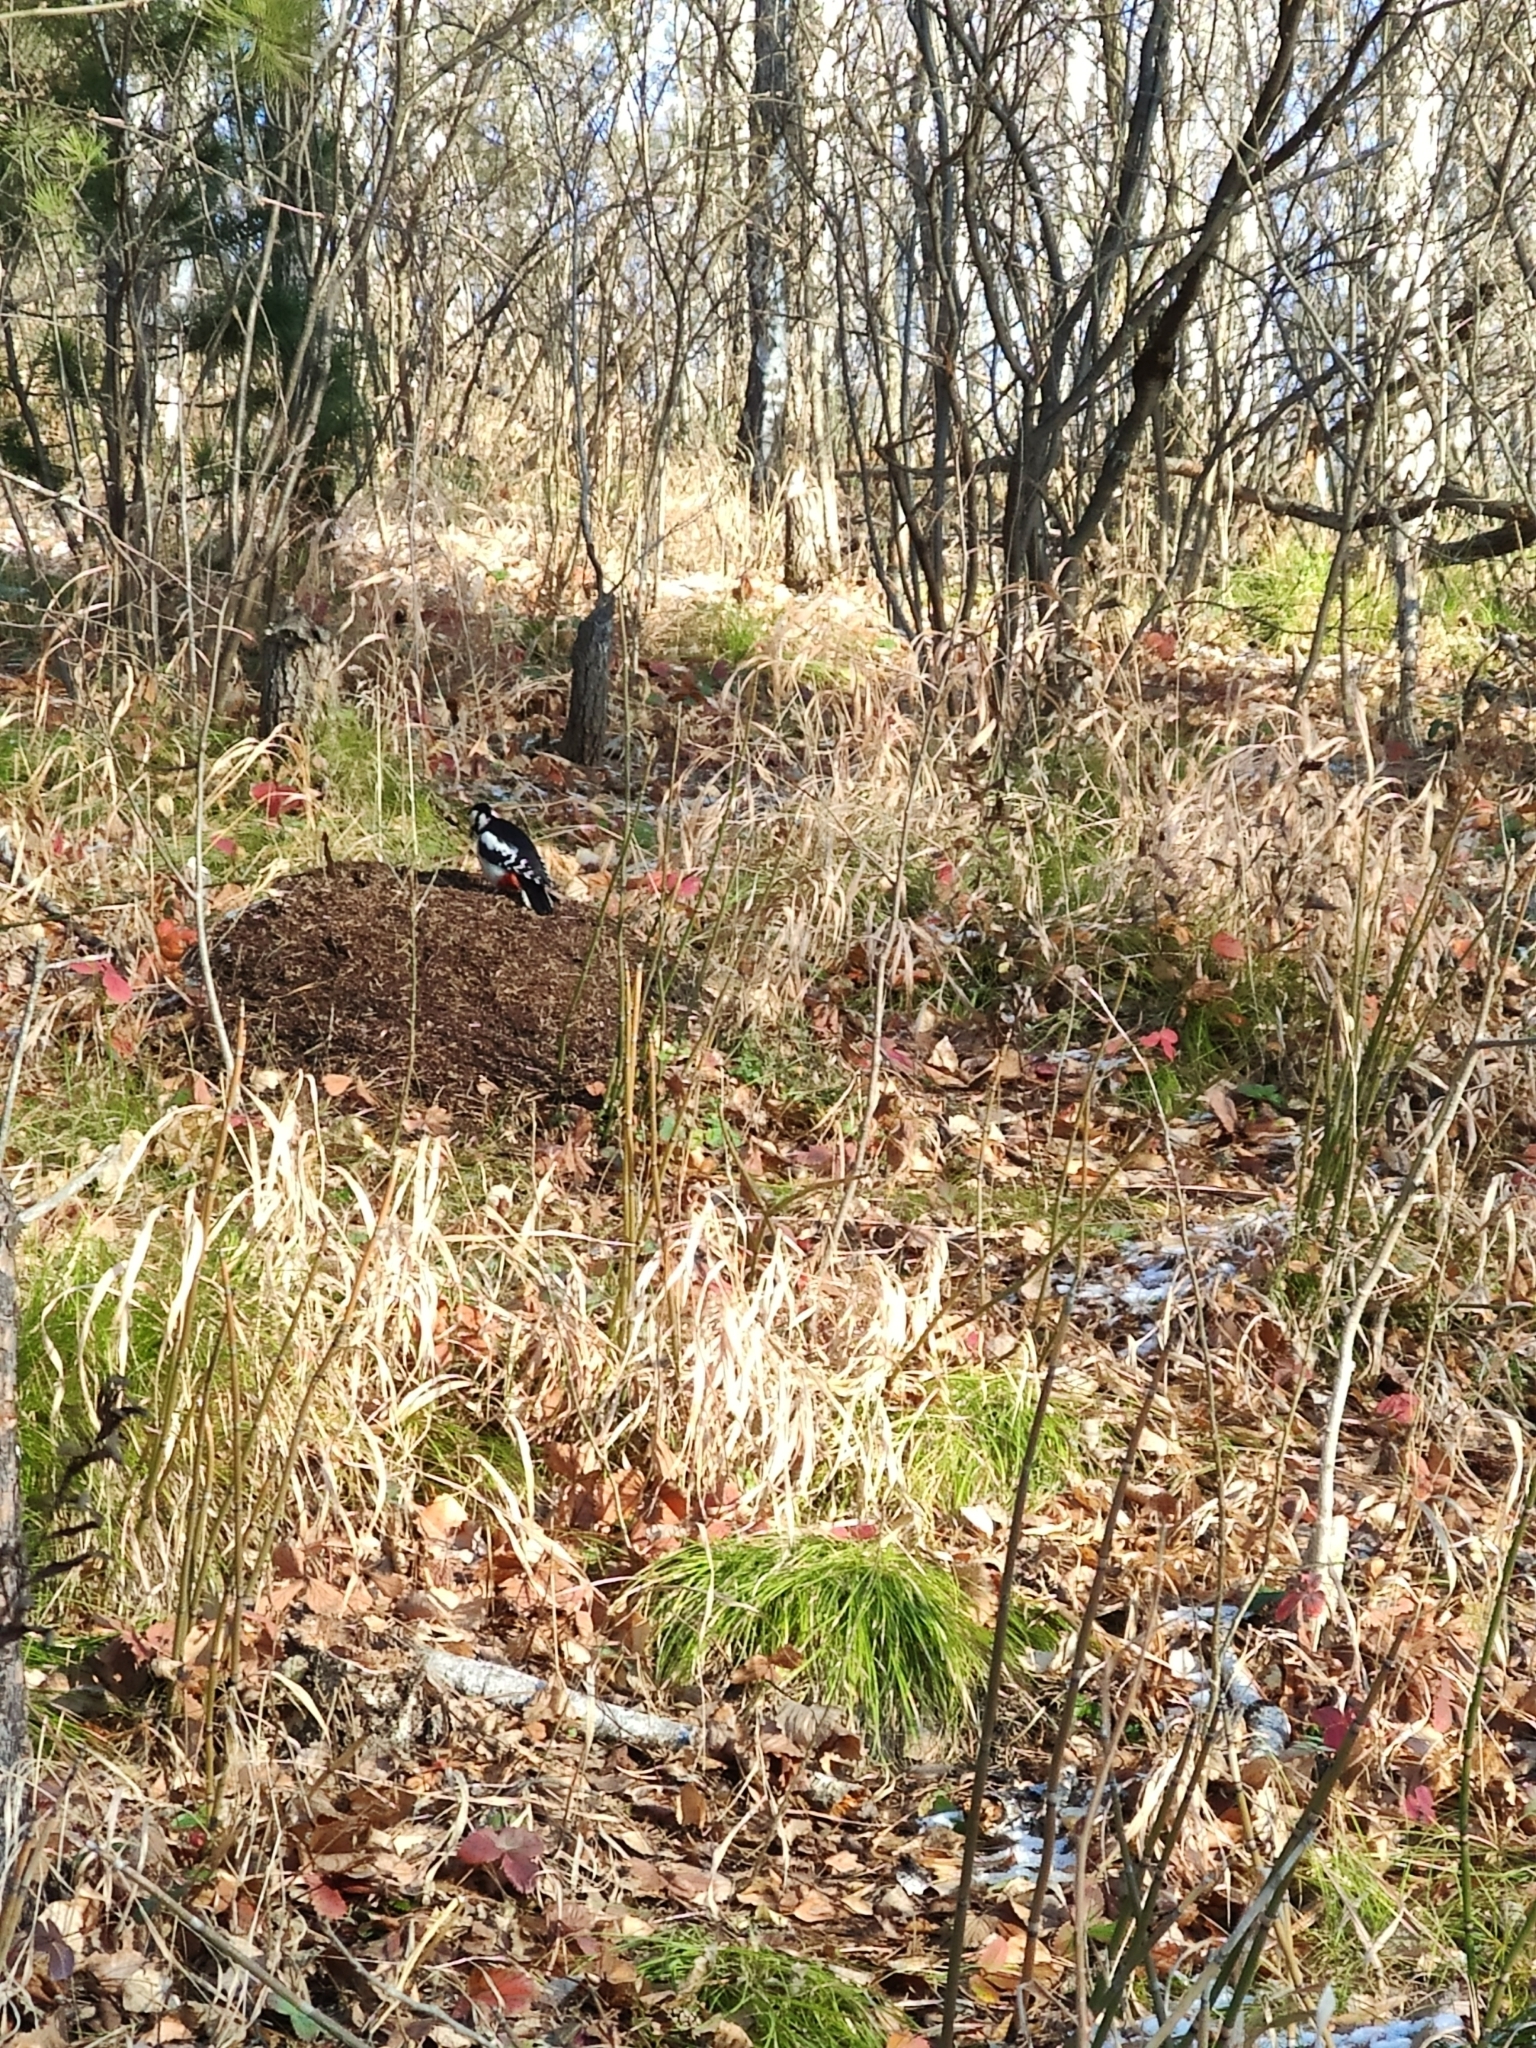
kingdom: Animalia
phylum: Chordata
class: Aves
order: Piciformes
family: Picidae
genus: Dendrocopos
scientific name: Dendrocopos major
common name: Great spotted woodpecker
